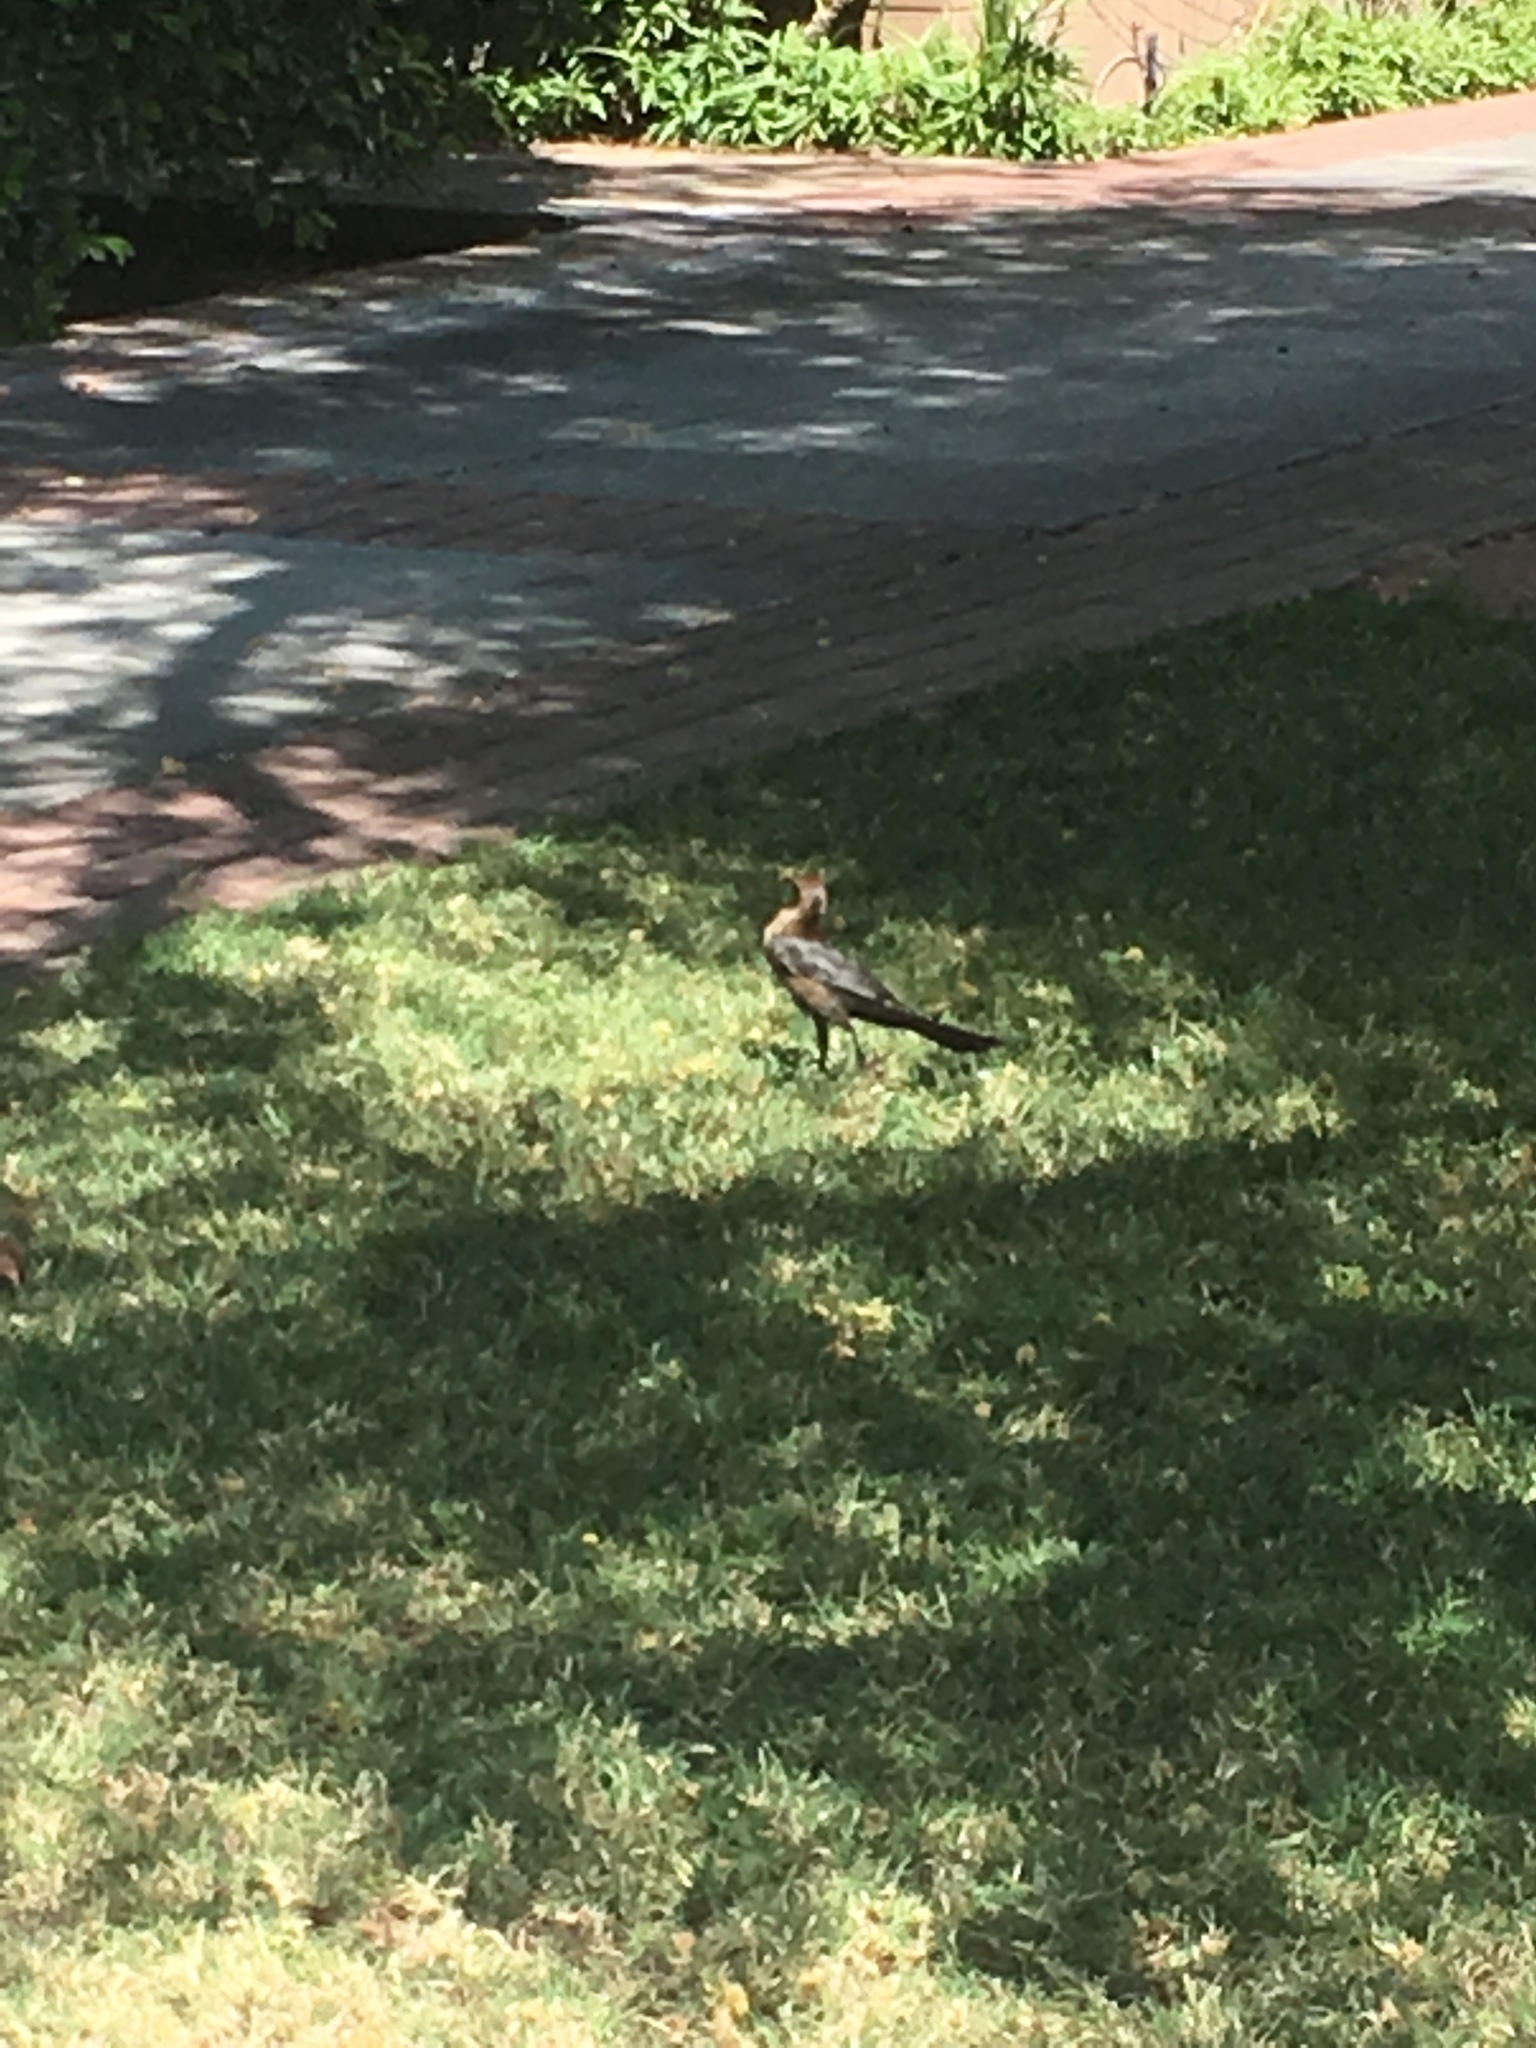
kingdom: Animalia
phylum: Chordata
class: Aves
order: Passeriformes
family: Icteridae
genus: Quiscalus
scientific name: Quiscalus mexicanus
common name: Great-tailed grackle
